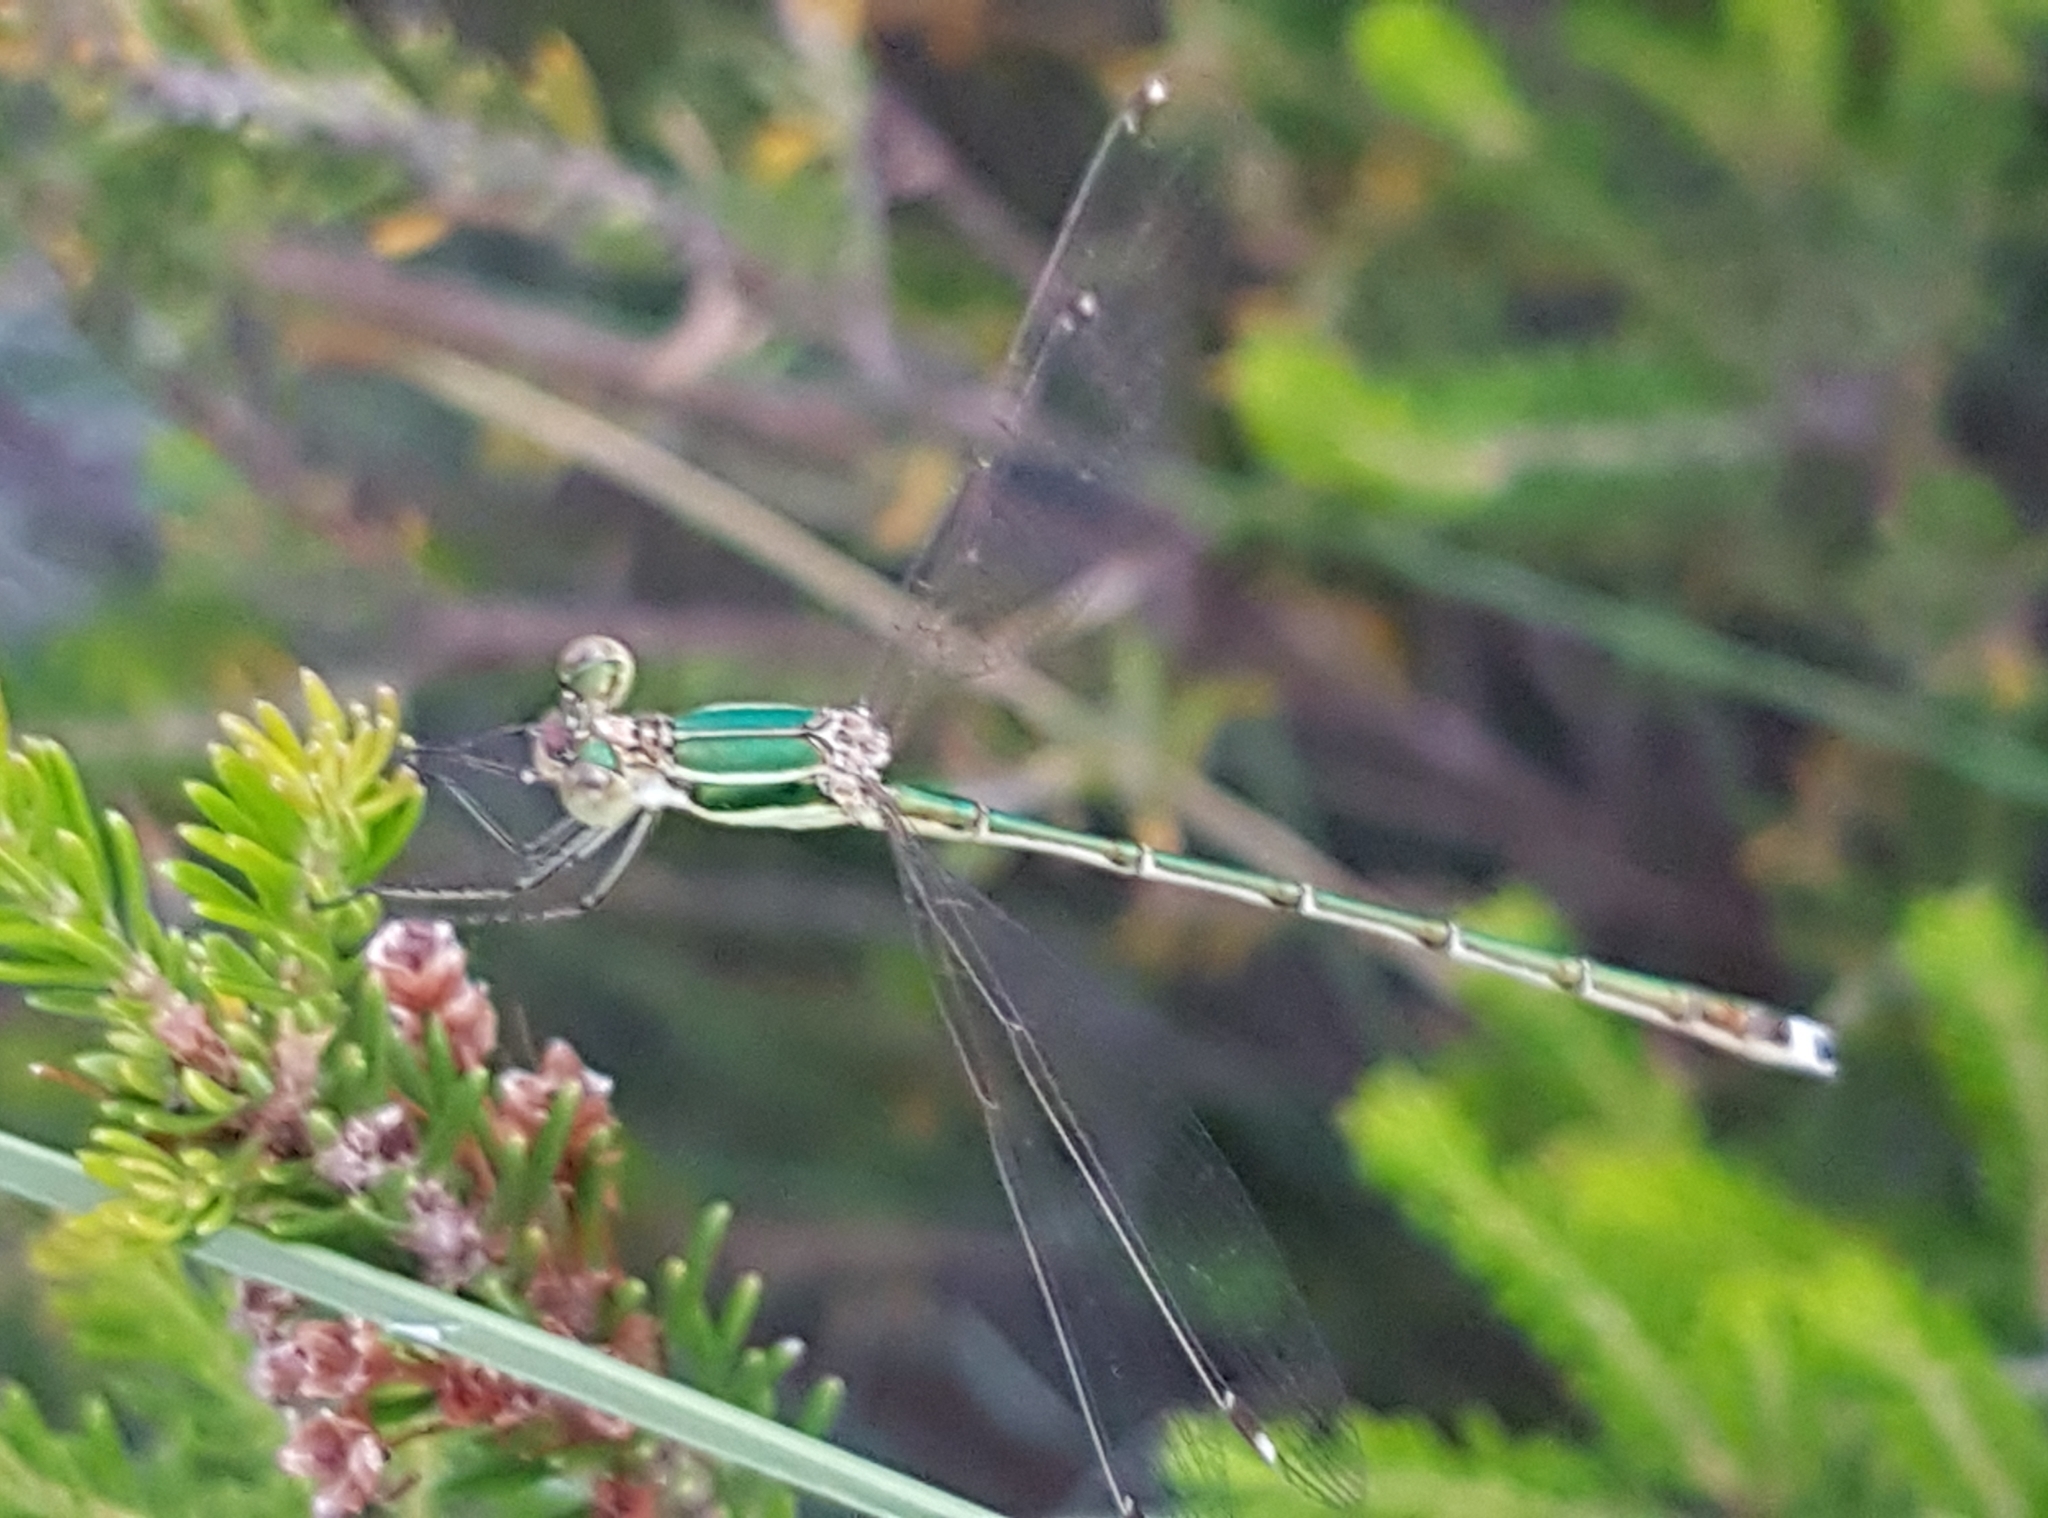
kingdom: Animalia
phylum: Arthropoda
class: Insecta
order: Odonata
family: Lestidae
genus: Lestes
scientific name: Lestes barbarus
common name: Migrant spreadwing
